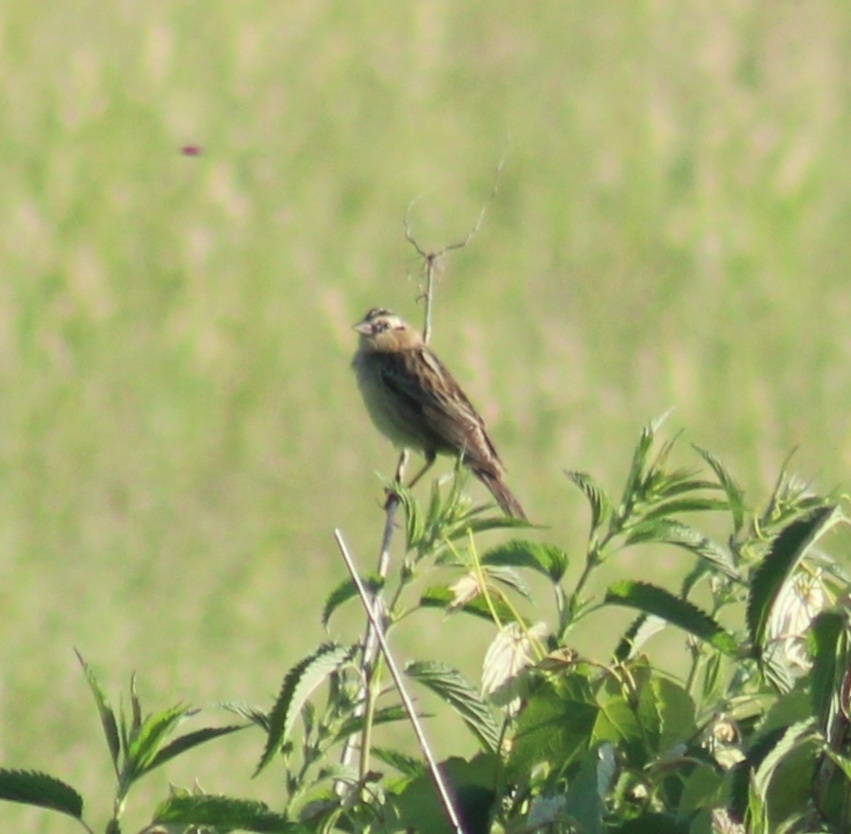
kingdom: Animalia
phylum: Chordata
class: Aves
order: Passeriformes
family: Icteridae
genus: Dolichonyx
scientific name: Dolichonyx oryzivorus
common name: Bobolink
